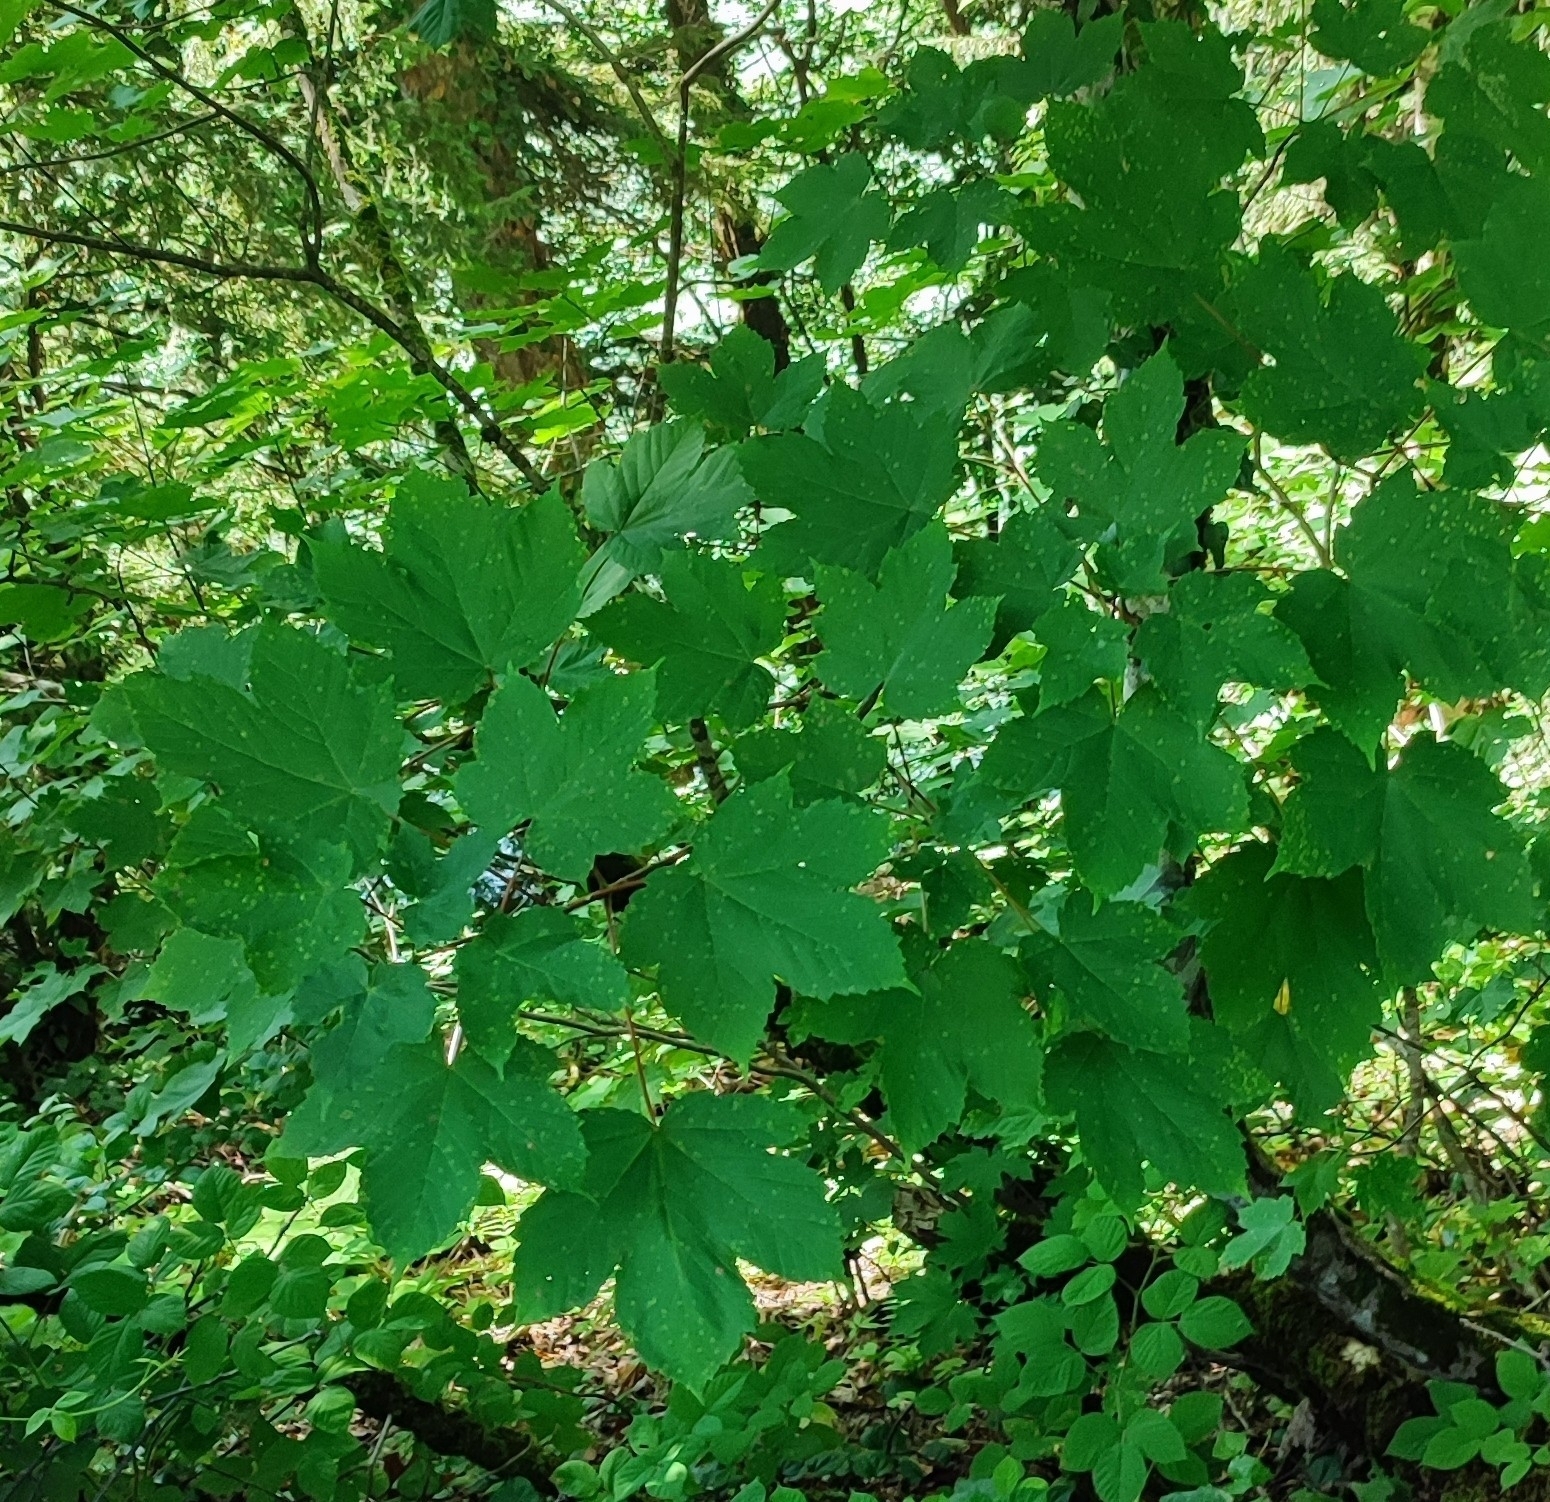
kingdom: Plantae
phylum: Tracheophyta
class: Magnoliopsida
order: Sapindales
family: Sapindaceae
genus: Acer
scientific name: Acer pseudoplatanus
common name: Sycamore
